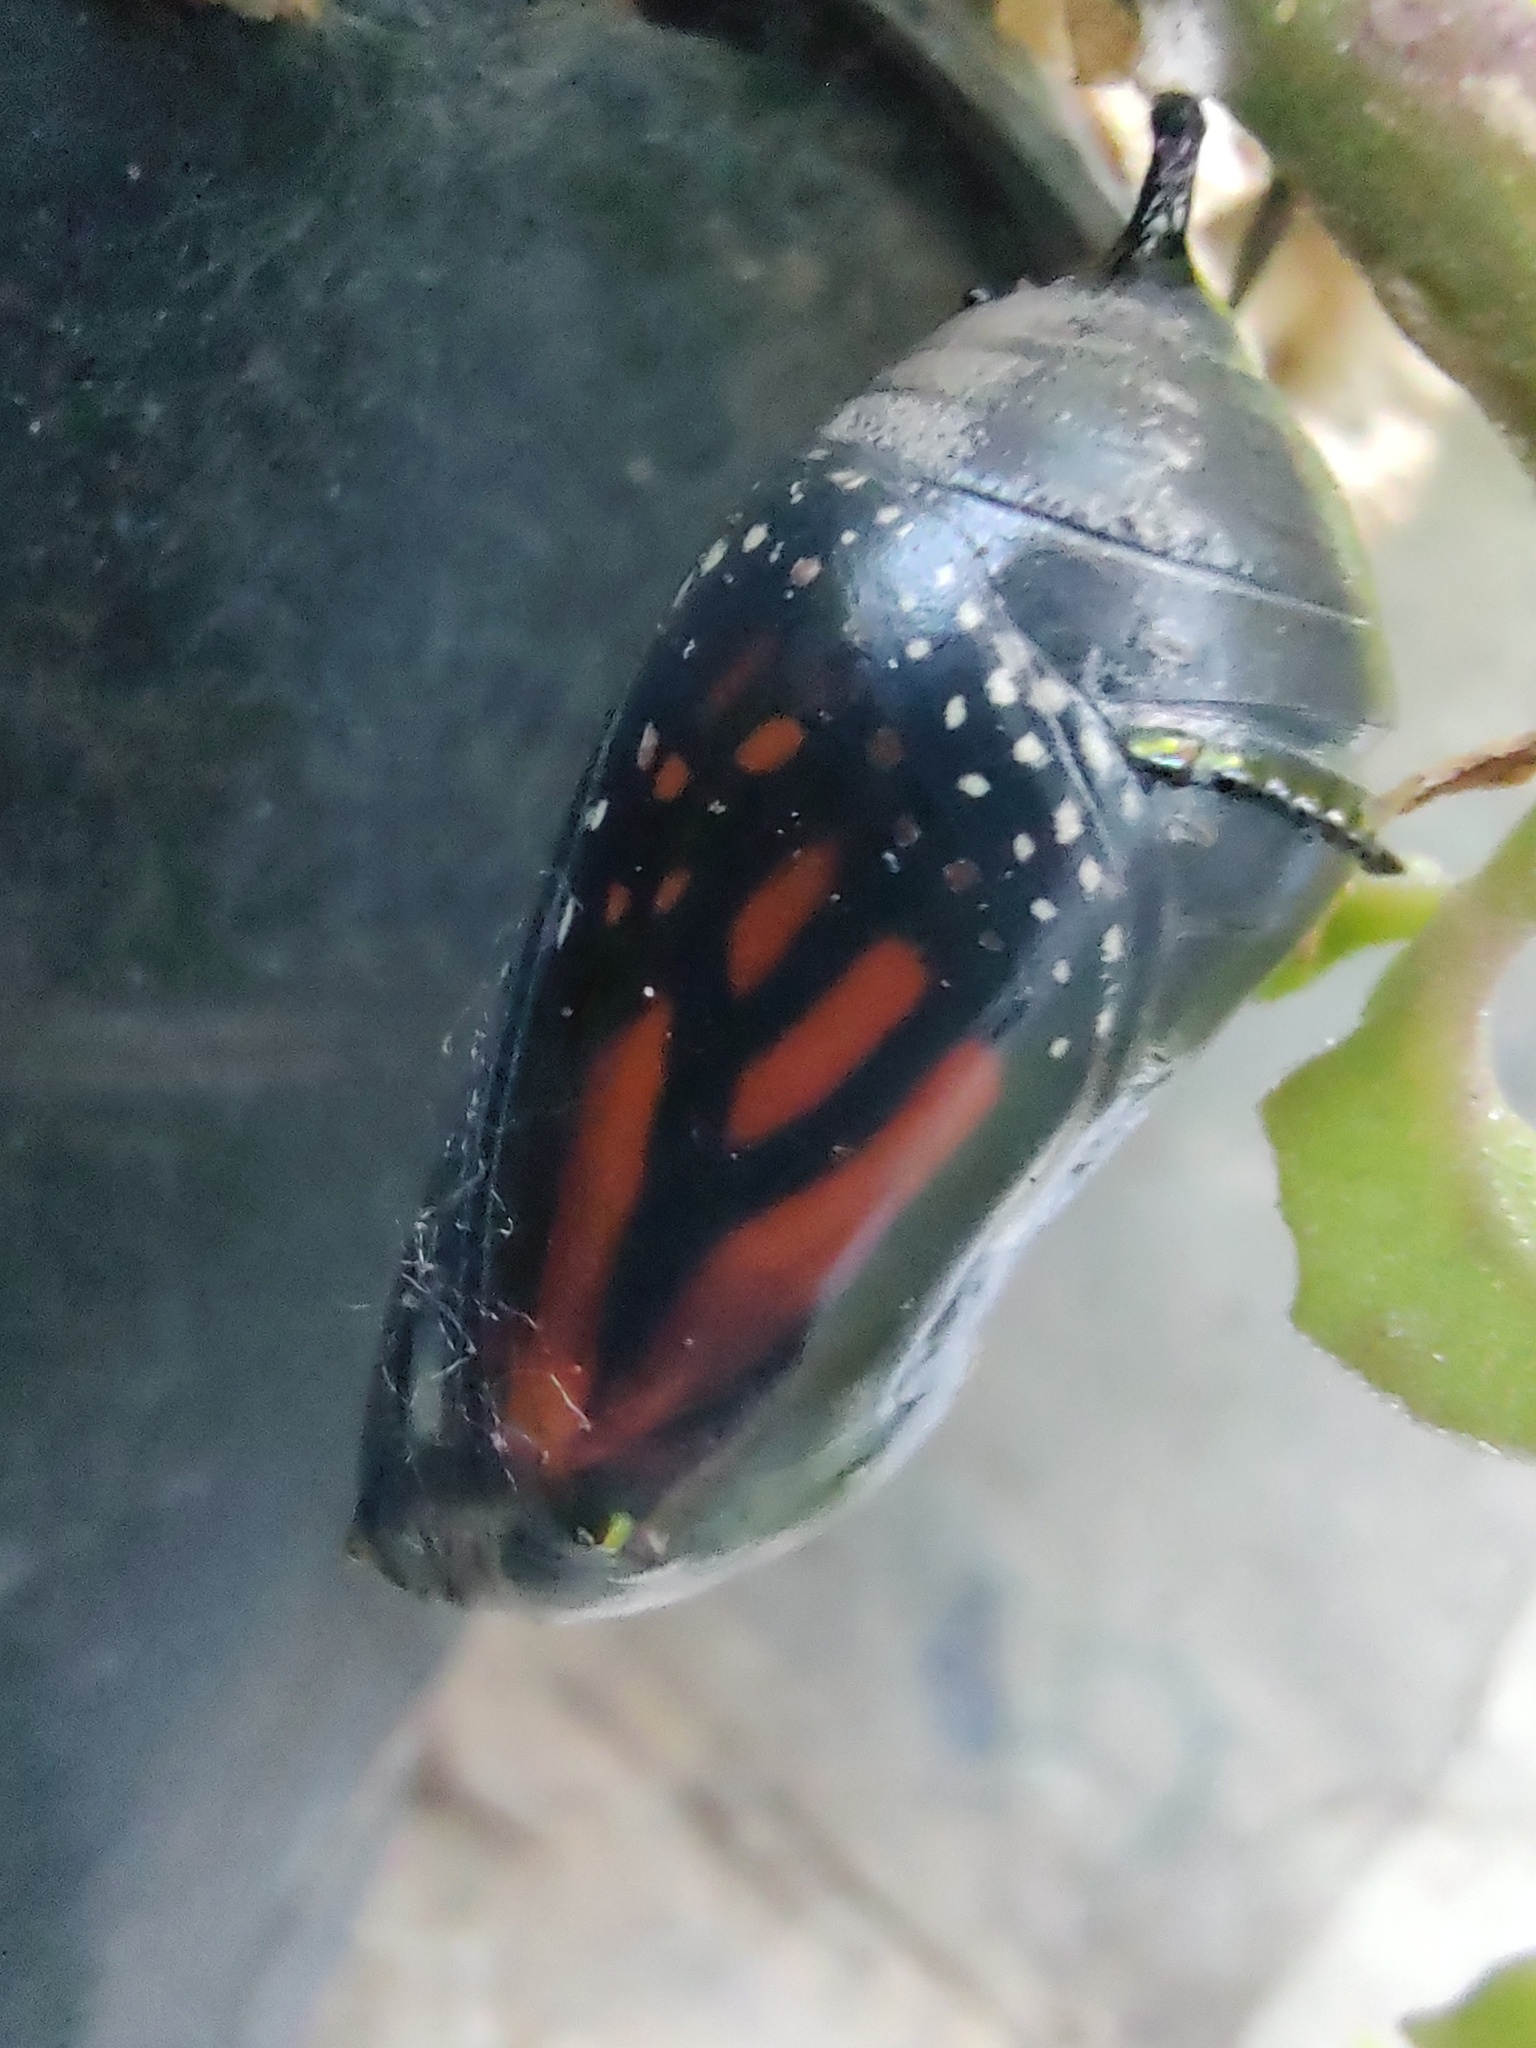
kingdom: Animalia
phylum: Arthropoda
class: Insecta
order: Lepidoptera
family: Nymphalidae
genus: Danaus
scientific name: Danaus plexippus
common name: Monarch
